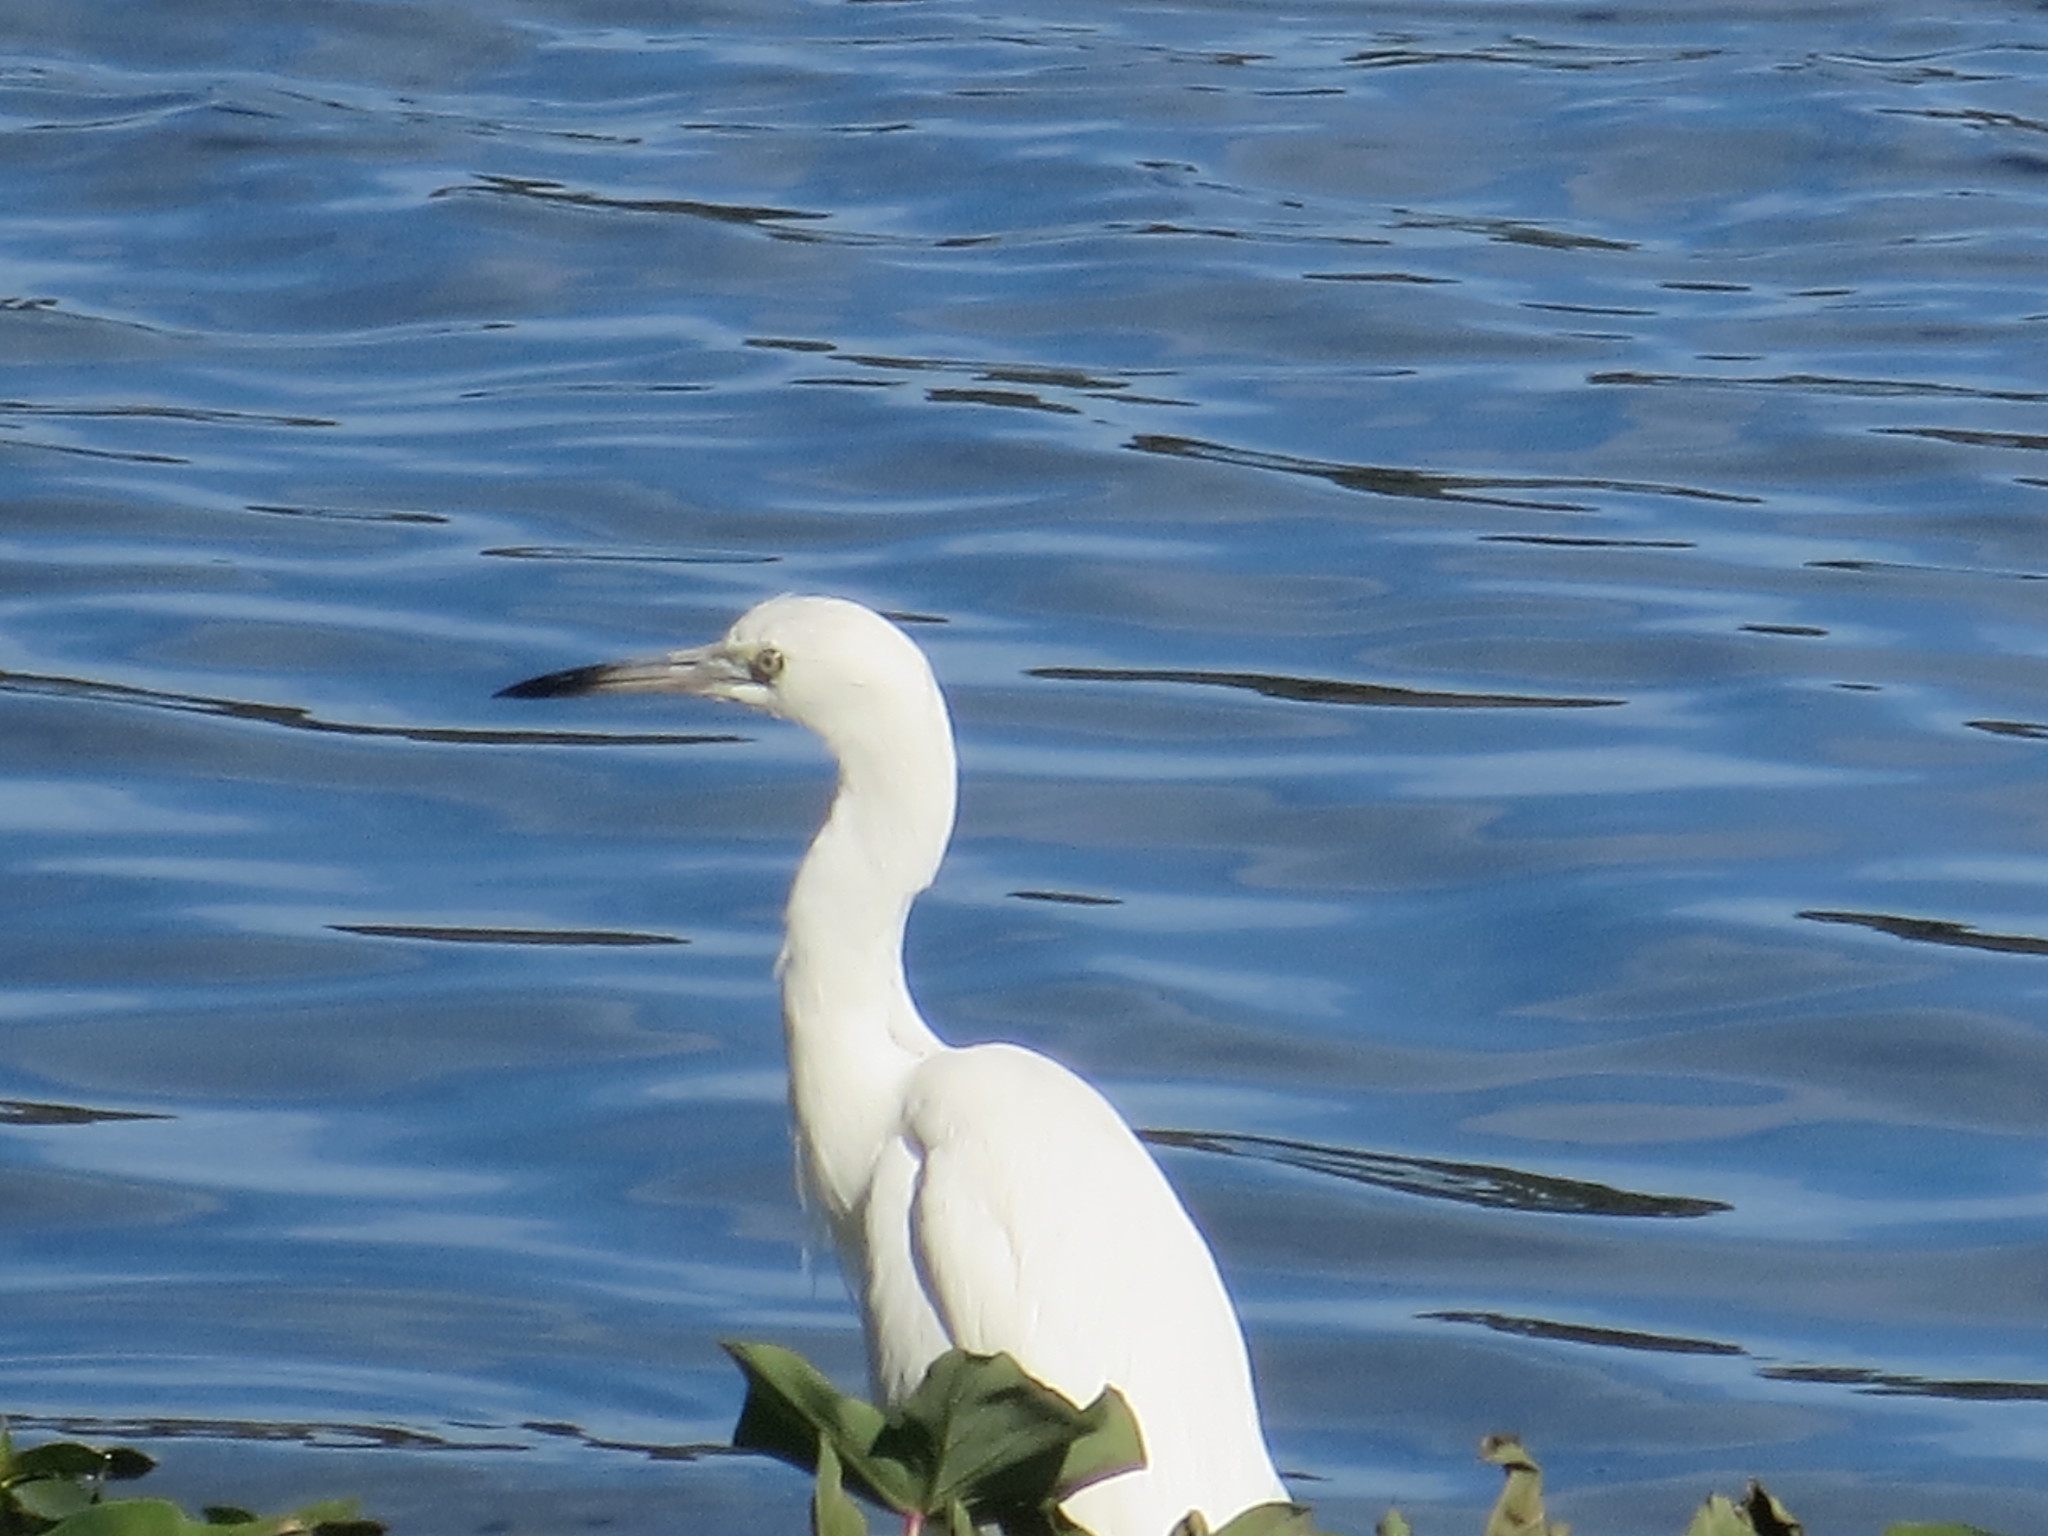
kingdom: Animalia
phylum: Chordata
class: Aves
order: Pelecaniformes
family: Ardeidae
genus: Egretta
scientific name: Egretta caerulea
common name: Little blue heron
